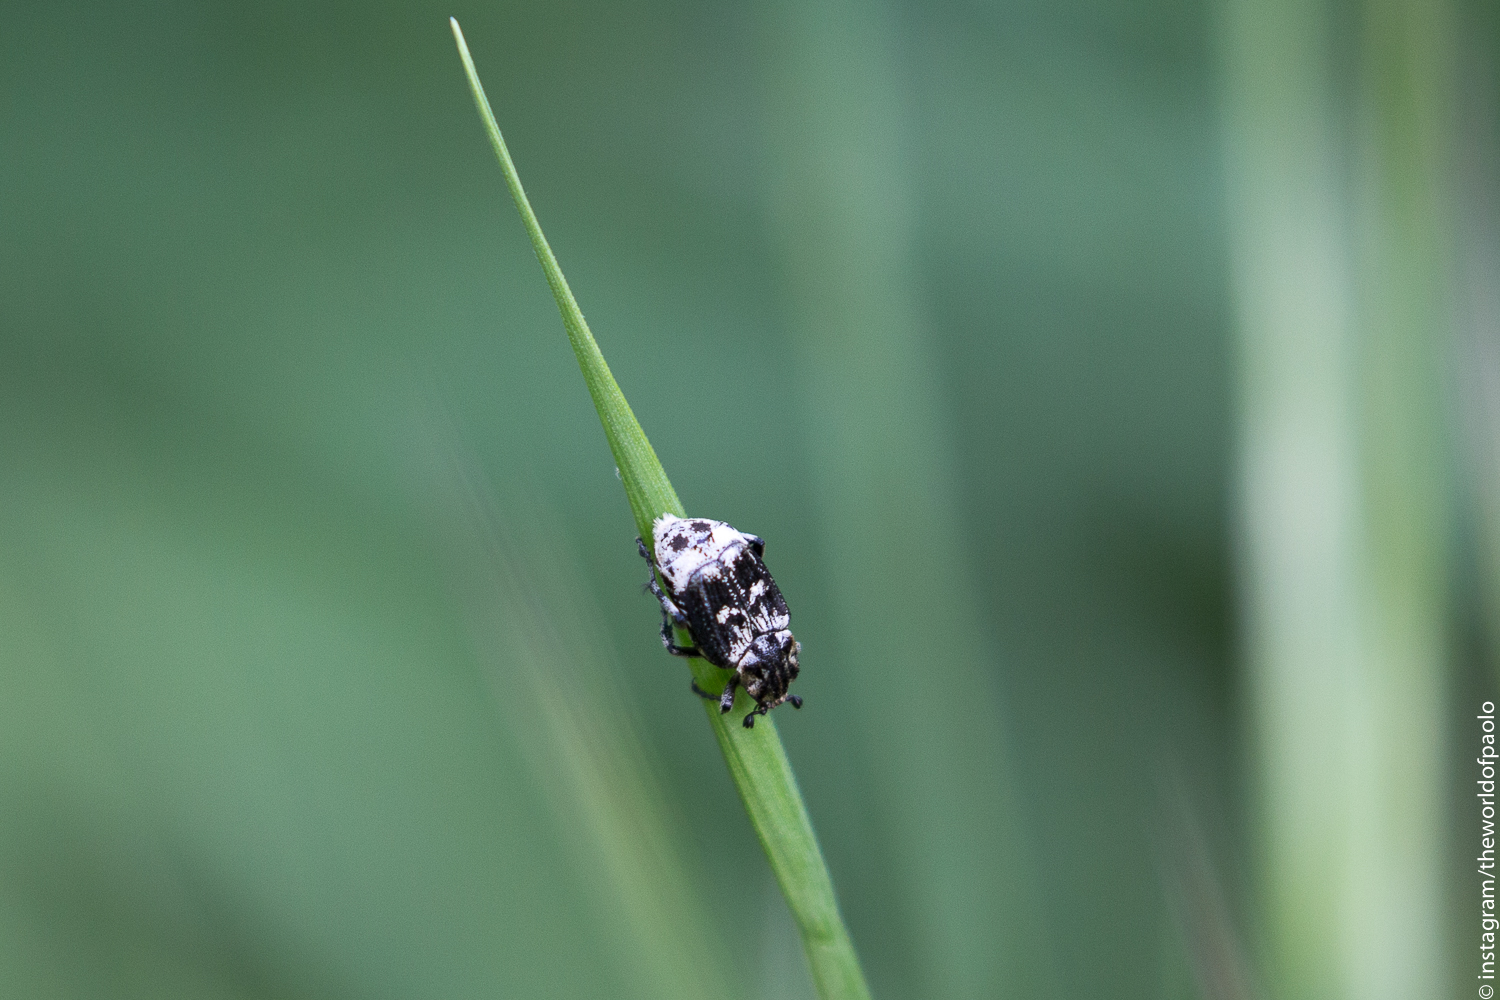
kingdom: Animalia
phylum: Arthropoda
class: Insecta
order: Coleoptera
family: Scarabaeidae
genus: Valgus
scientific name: Valgus hemipterus
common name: Bug flower chafer
